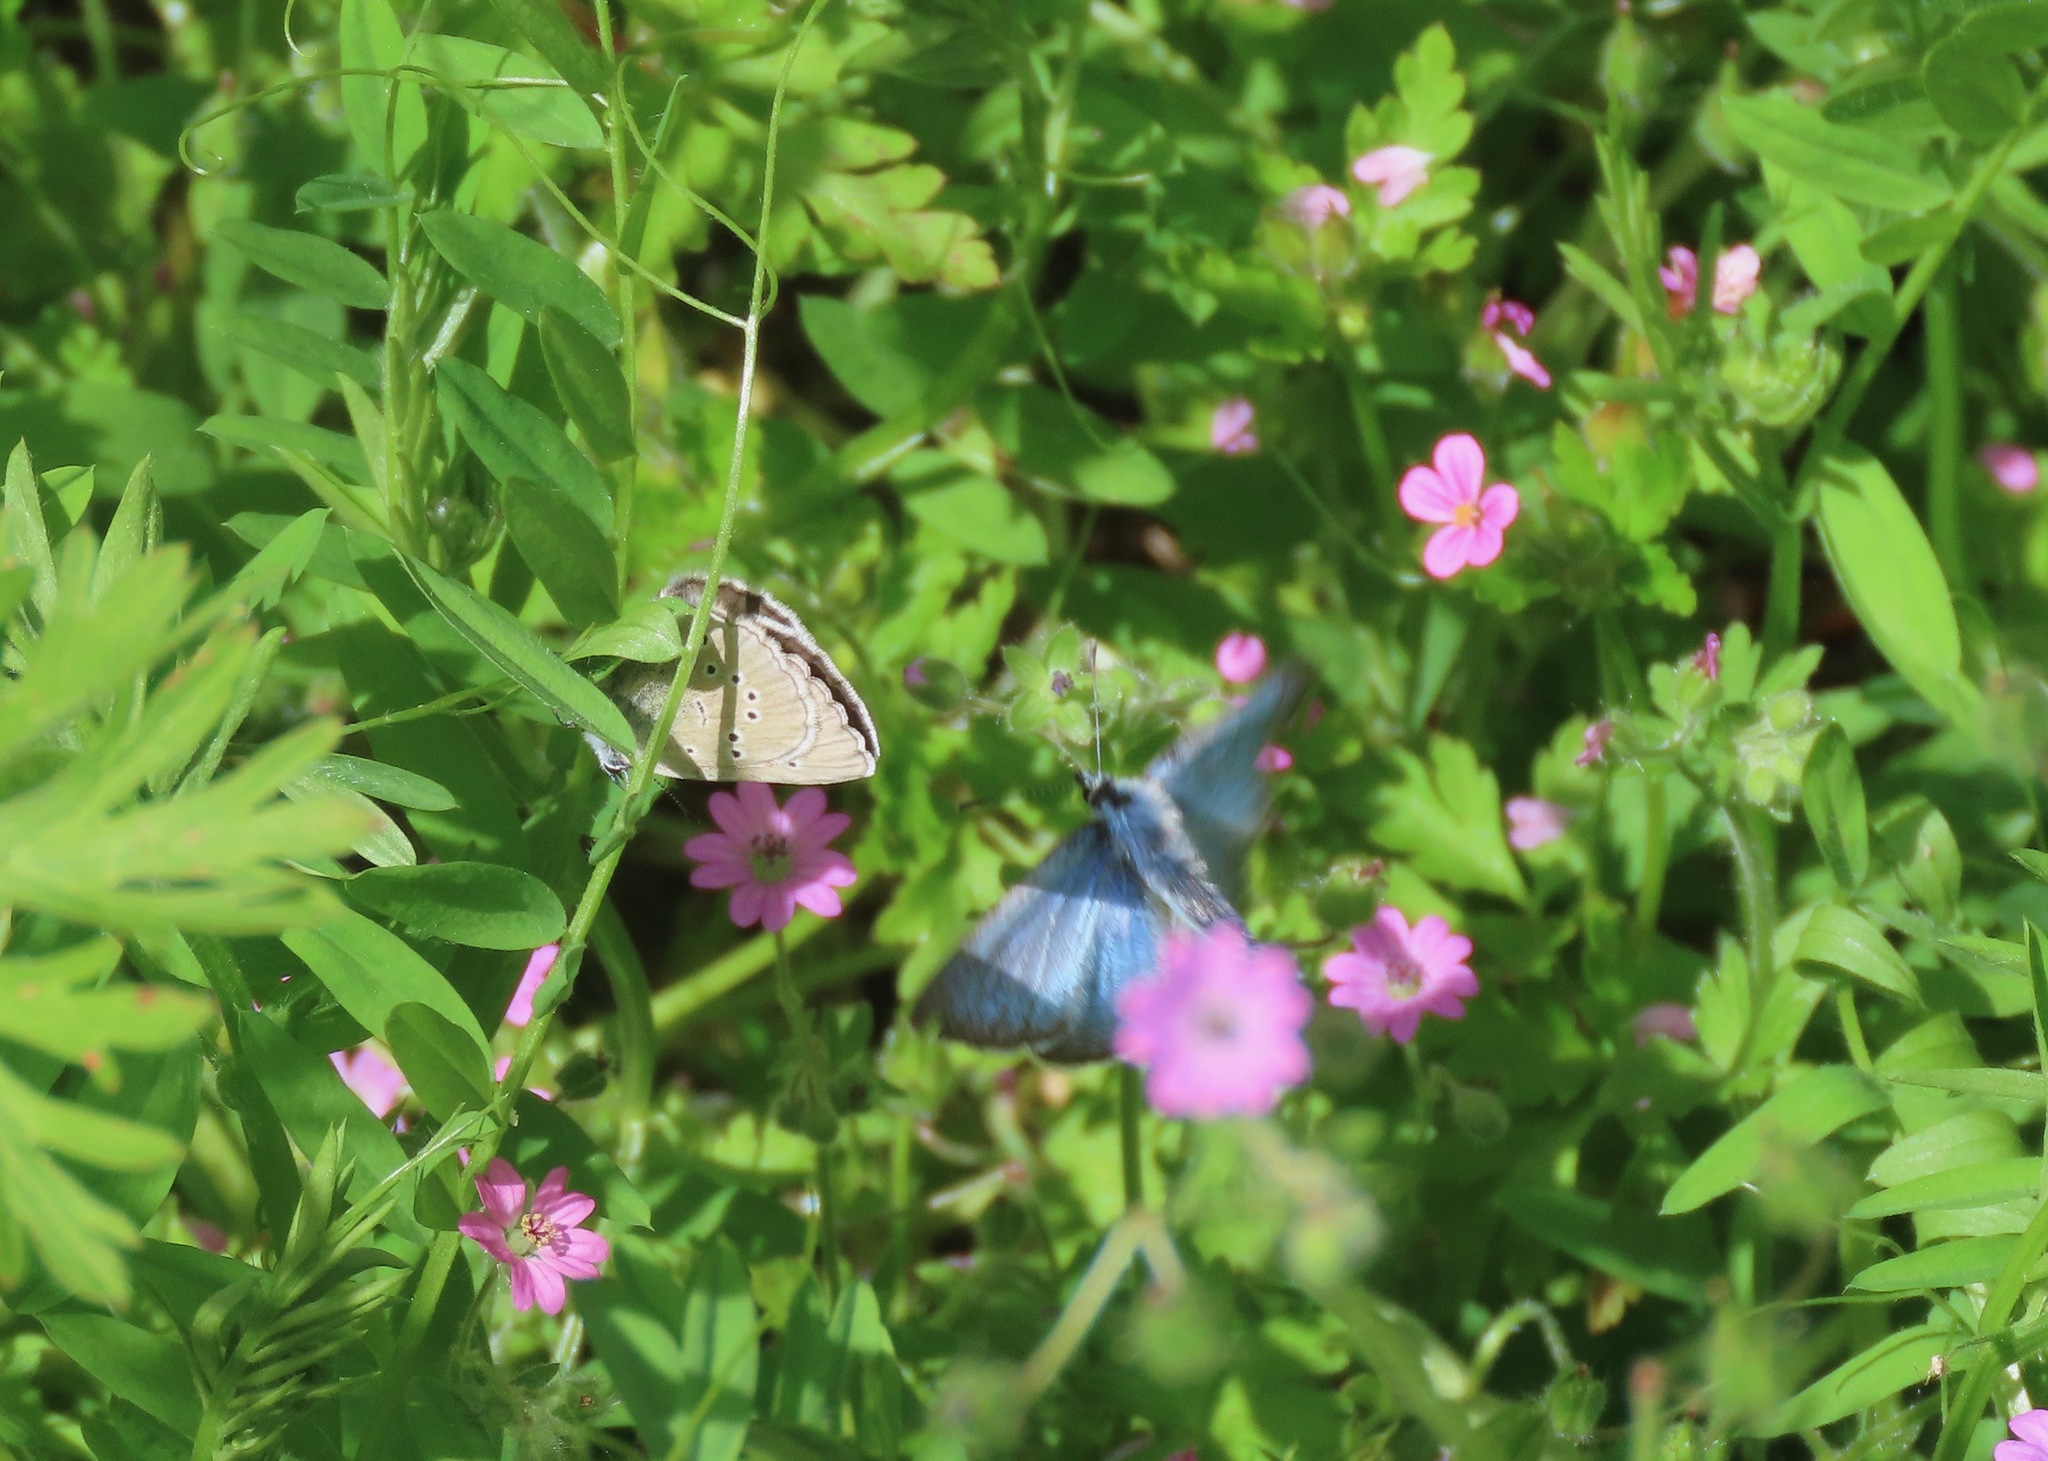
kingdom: Animalia
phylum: Arthropoda
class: Insecta
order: Lepidoptera
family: Lycaenidae
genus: Glaucopsyche
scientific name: Glaucopsyche lygdamus
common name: Silvery blue
